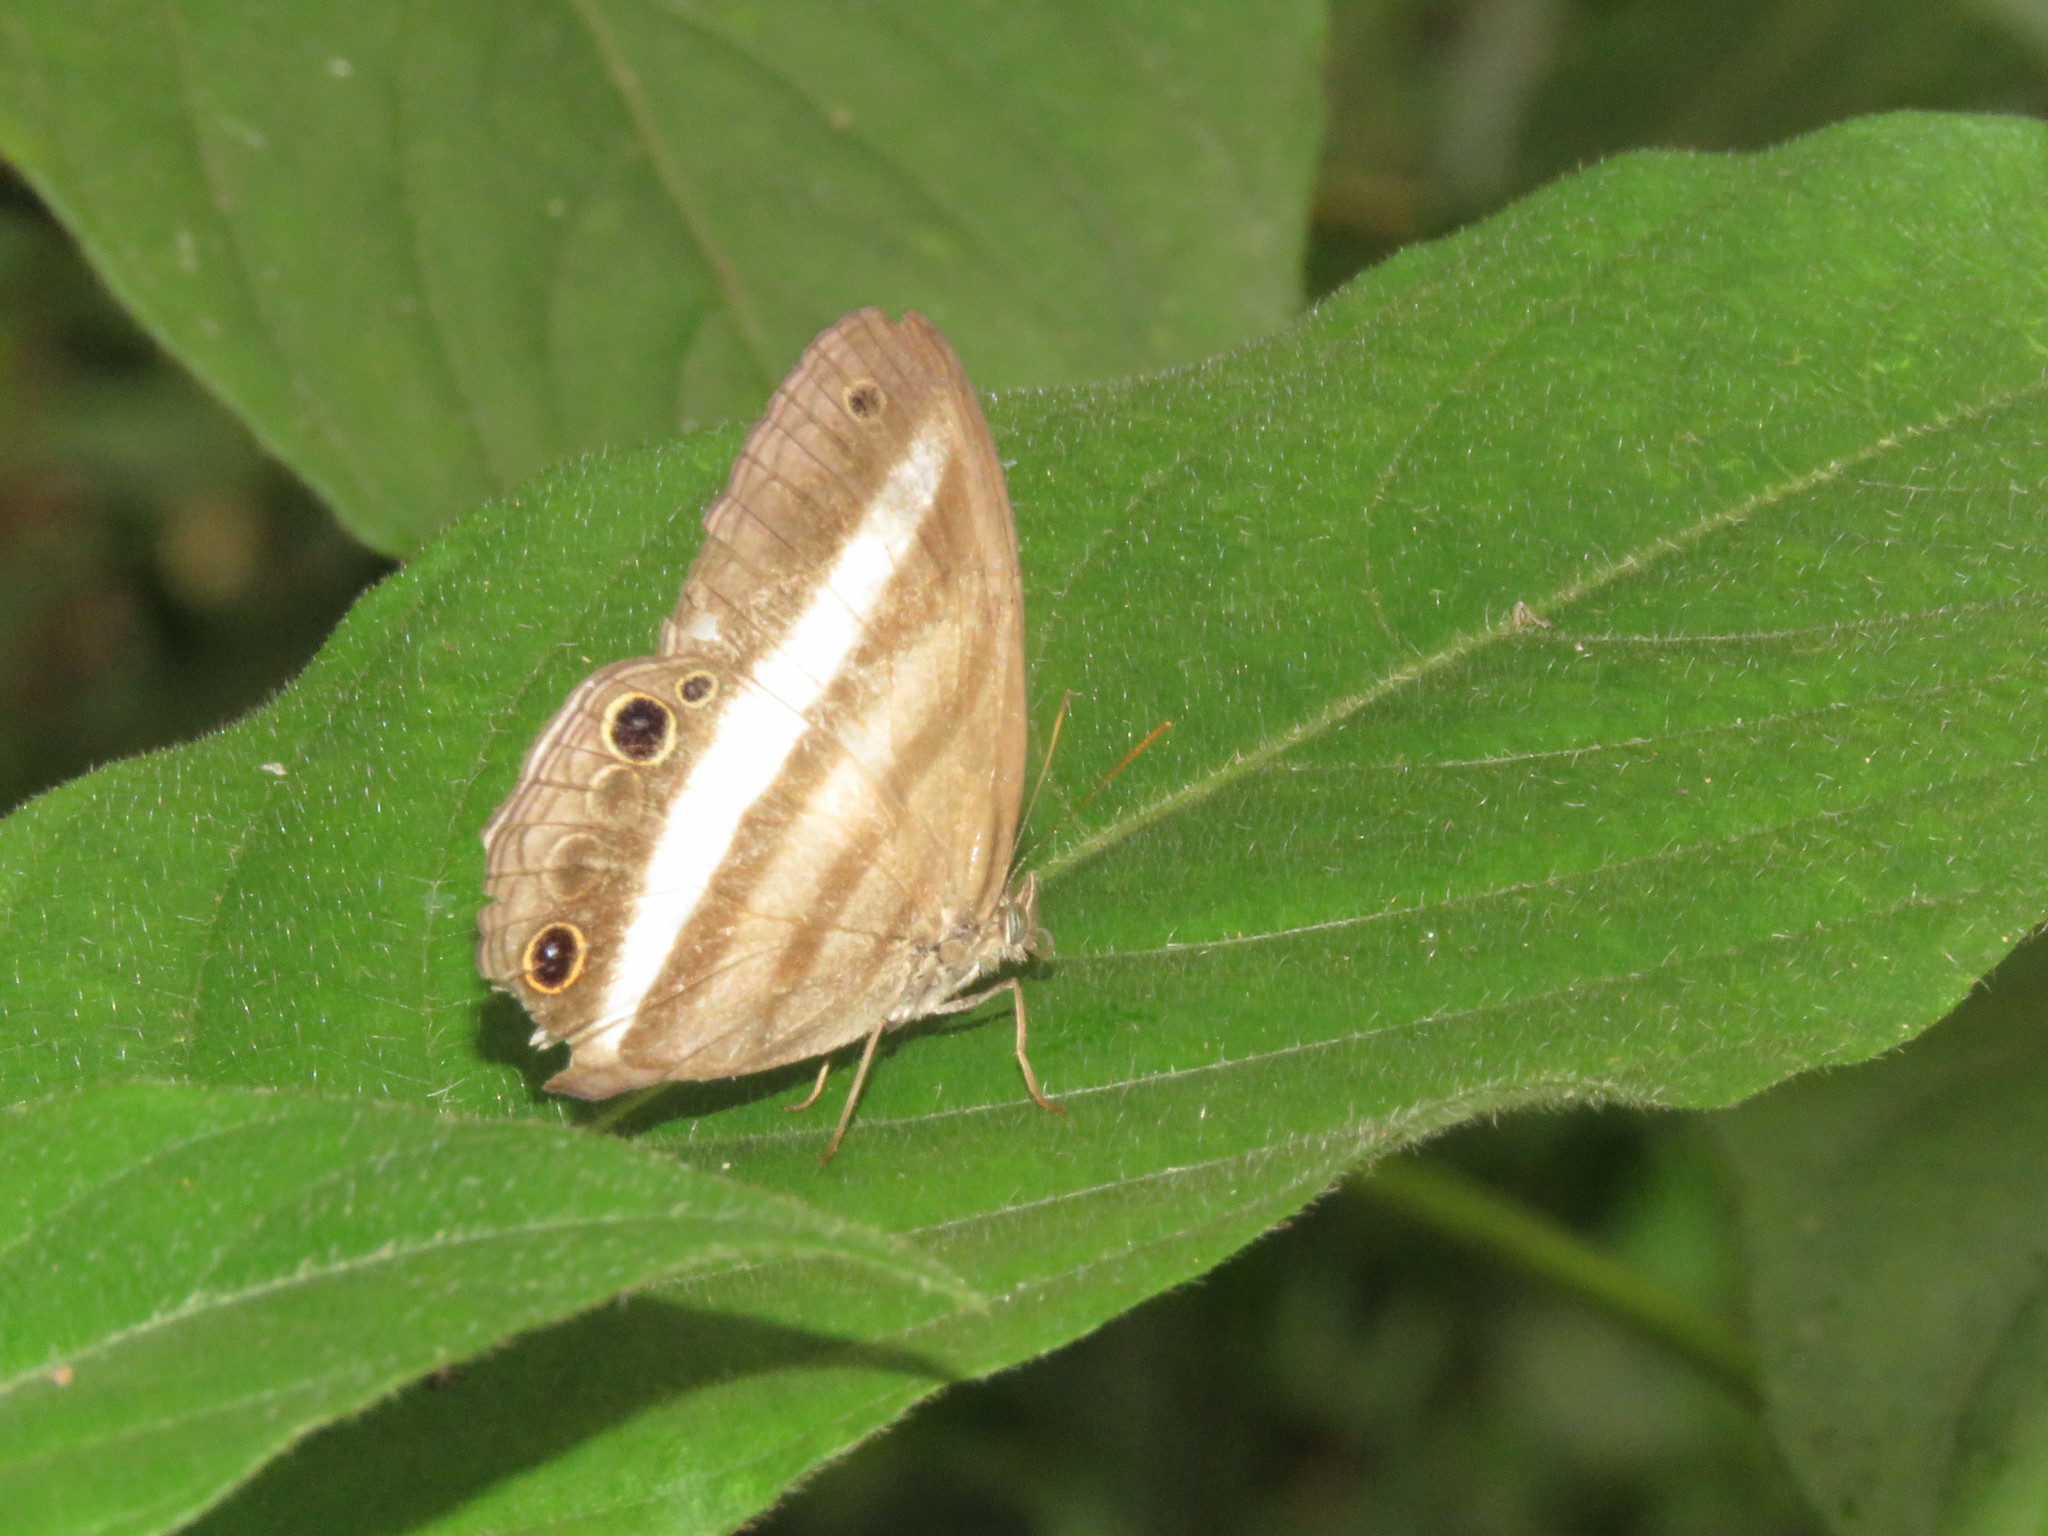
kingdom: Animalia
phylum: Arthropoda
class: Insecta
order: Lepidoptera
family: Nymphalidae
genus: Pareuptychia
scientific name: Pareuptychia hesione
